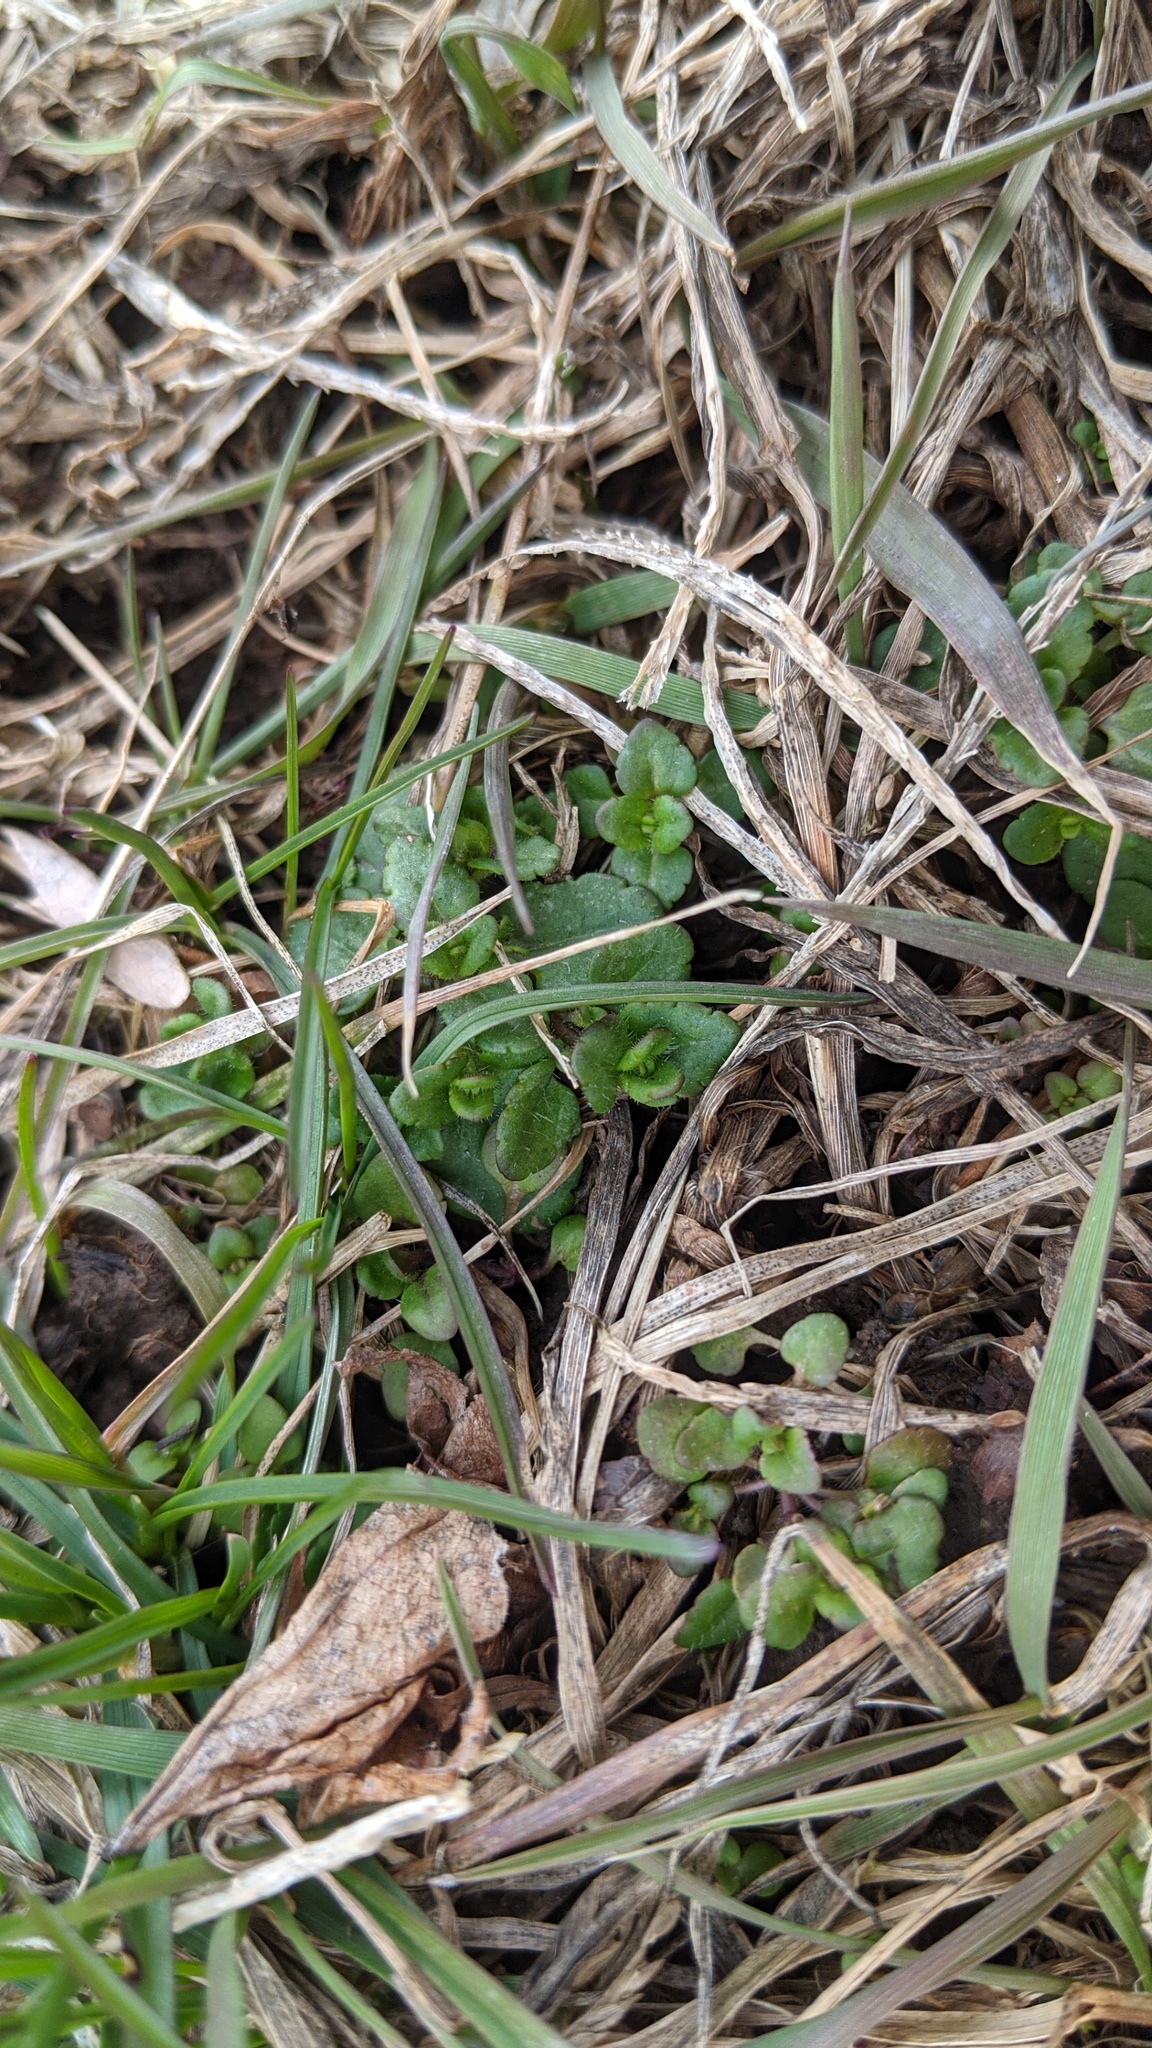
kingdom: Plantae
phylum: Tracheophyta
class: Magnoliopsida
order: Lamiales
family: Plantaginaceae
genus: Veronica
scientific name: Veronica arvensis
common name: Corn speedwell
